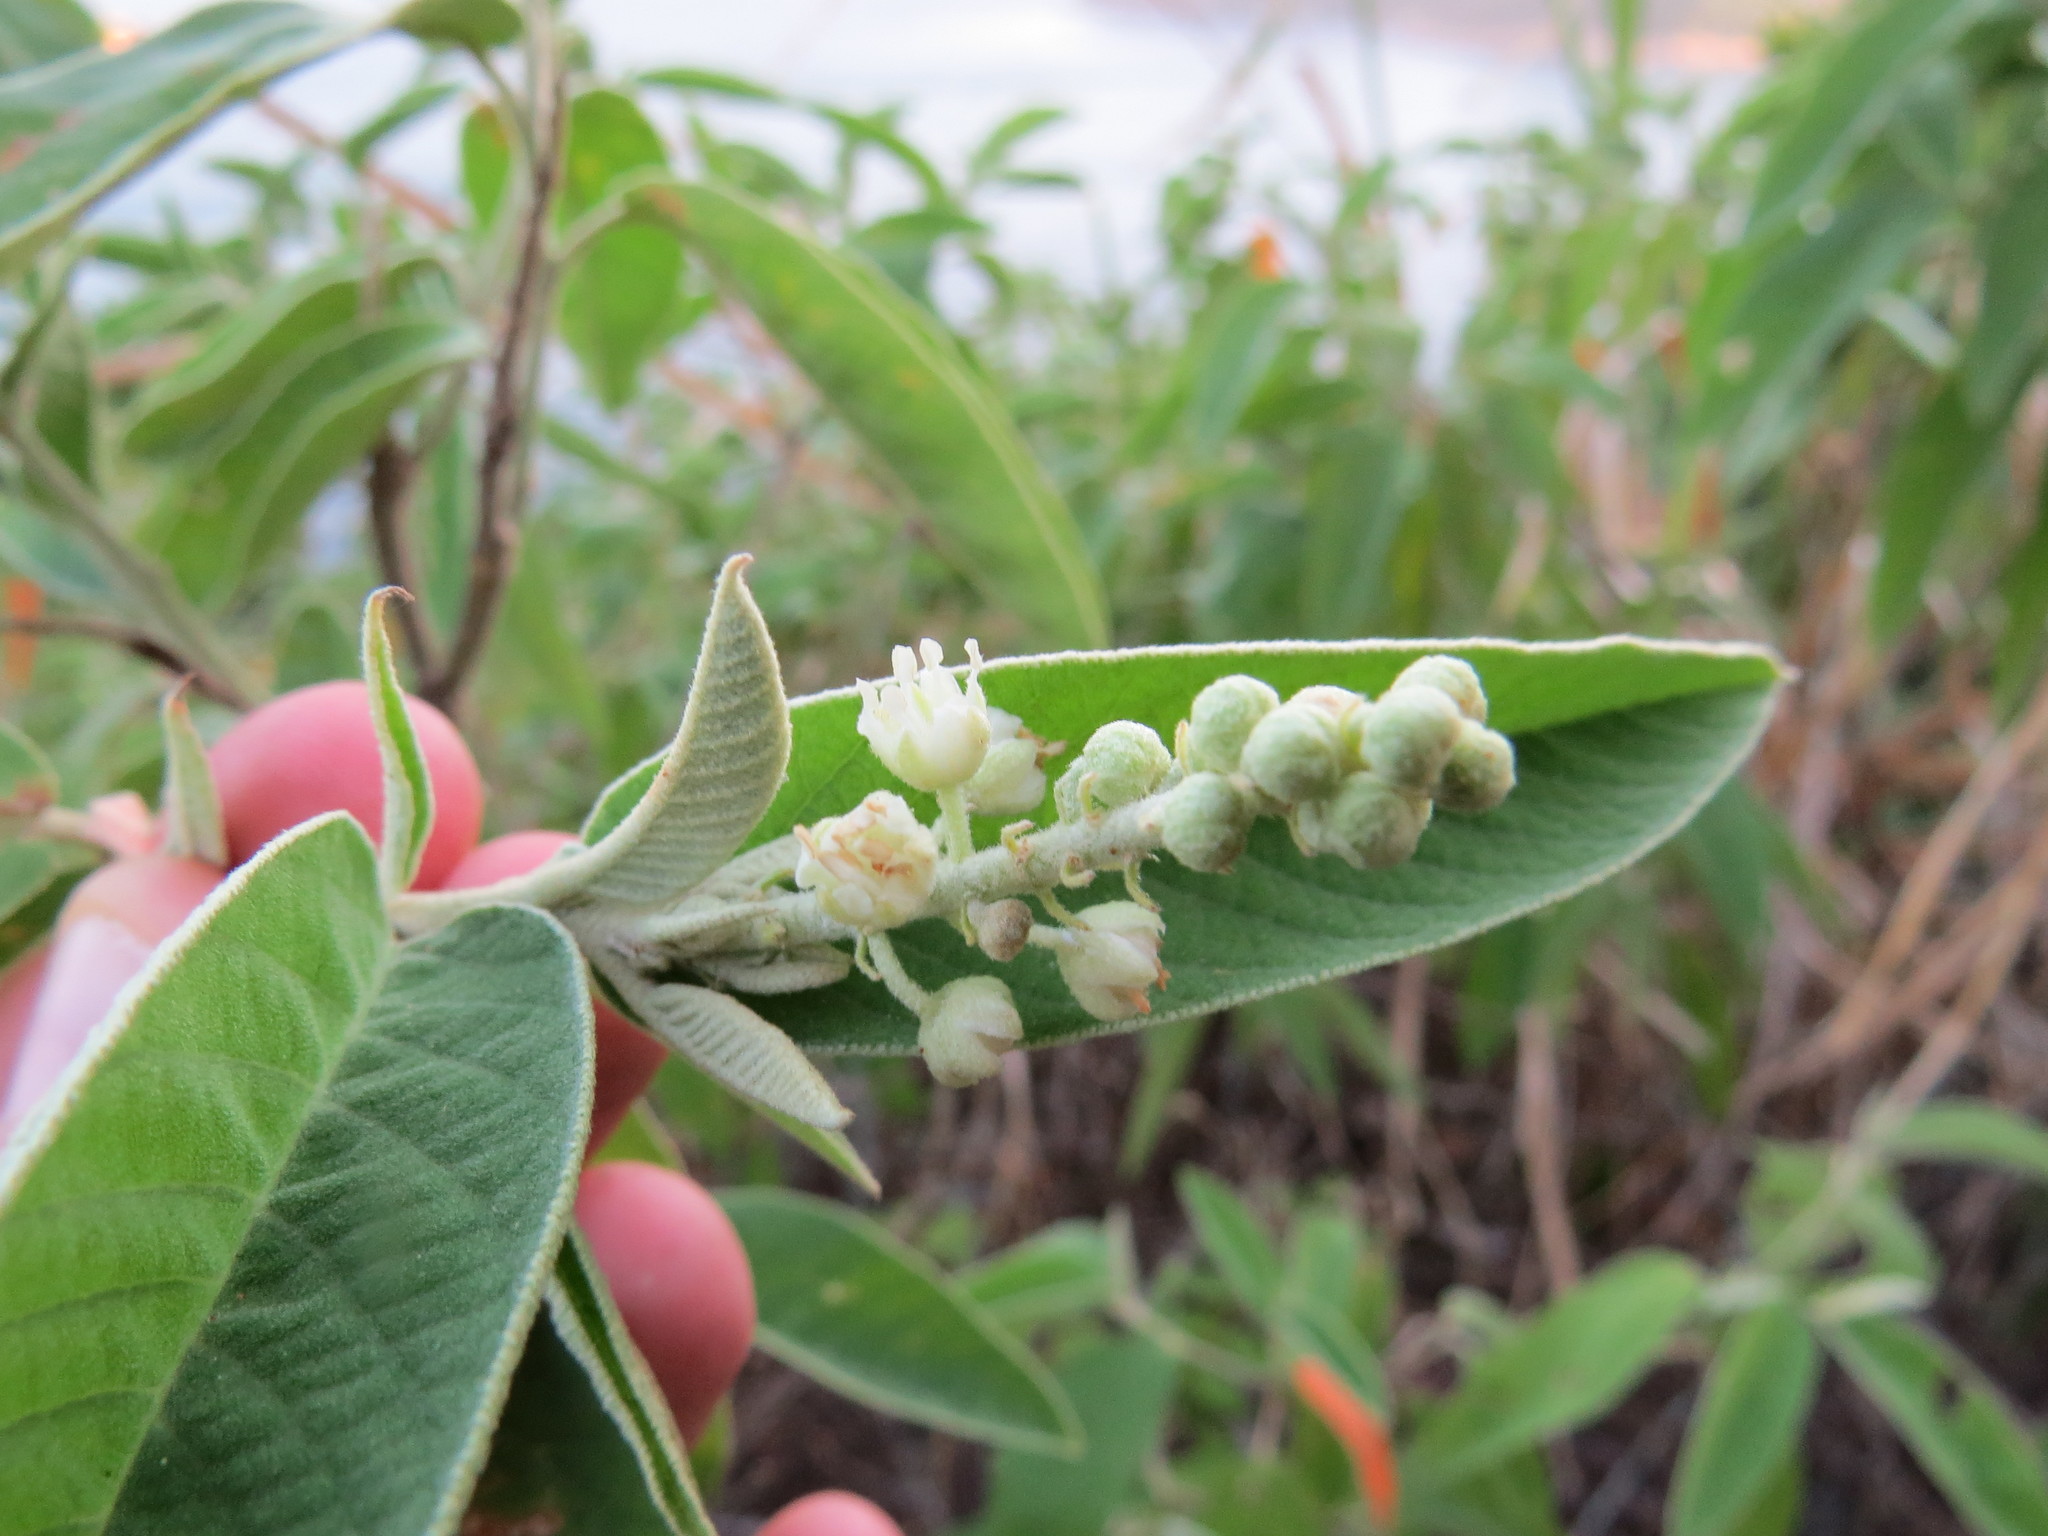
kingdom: Plantae
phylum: Tracheophyta
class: Magnoliopsida
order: Malpighiales
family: Euphorbiaceae
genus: Croton
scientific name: Croton compressus
